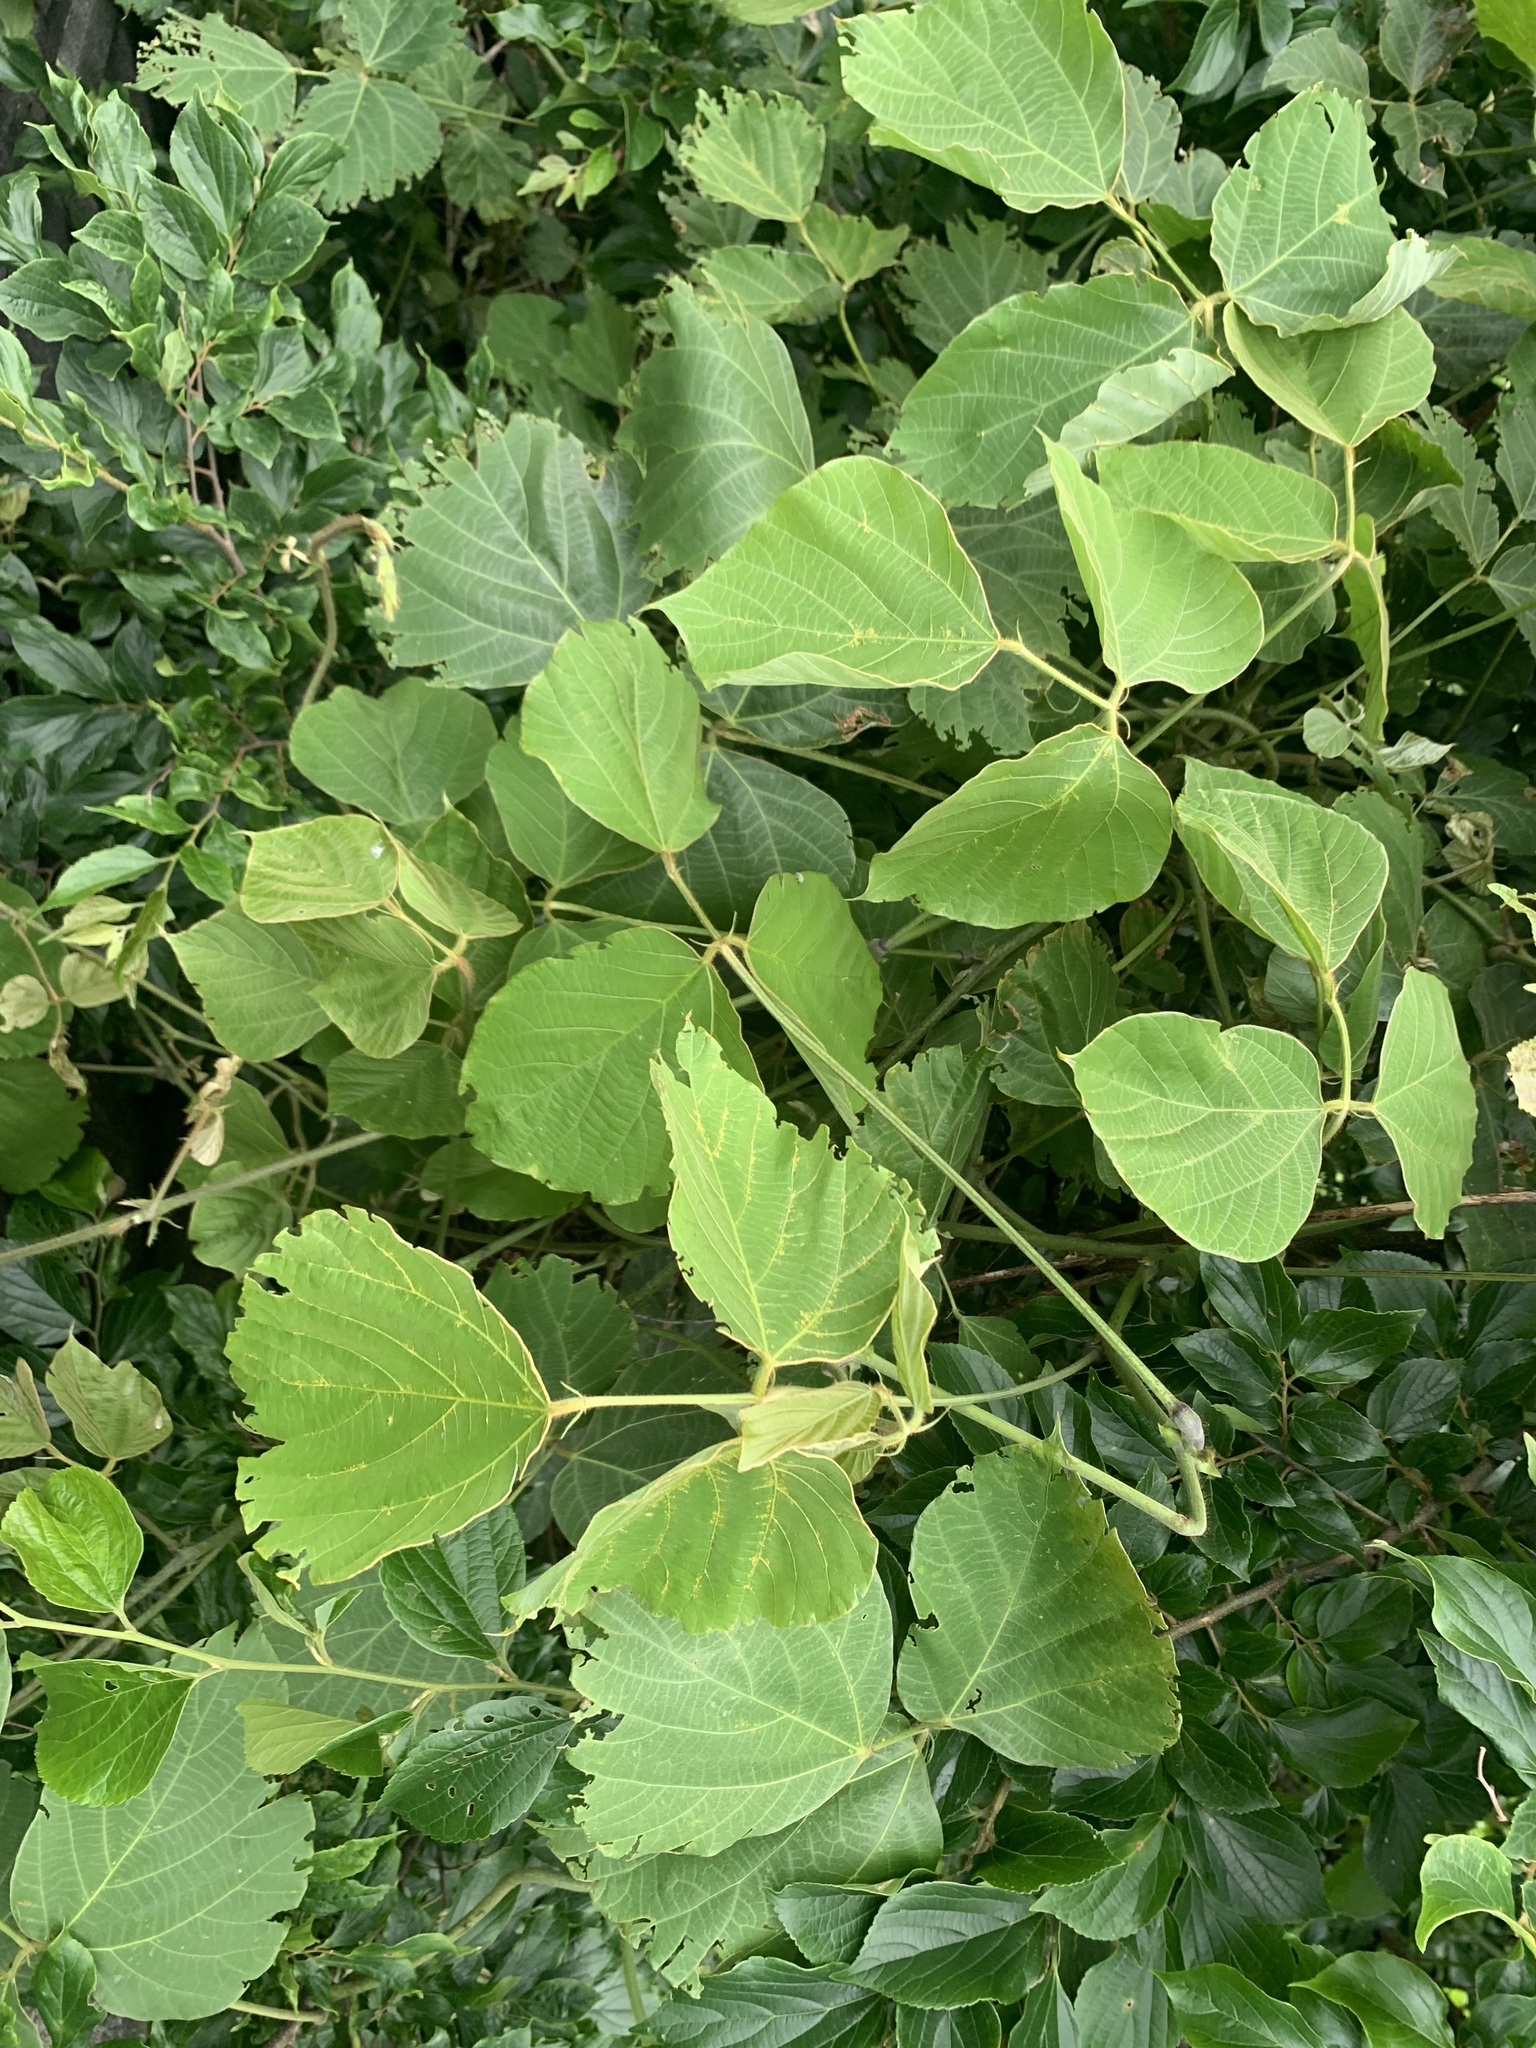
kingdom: Plantae
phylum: Tracheophyta
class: Magnoliopsida
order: Fabales
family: Fabaceae
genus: Pueraria
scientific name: Pueraria montana
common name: Kudzu
